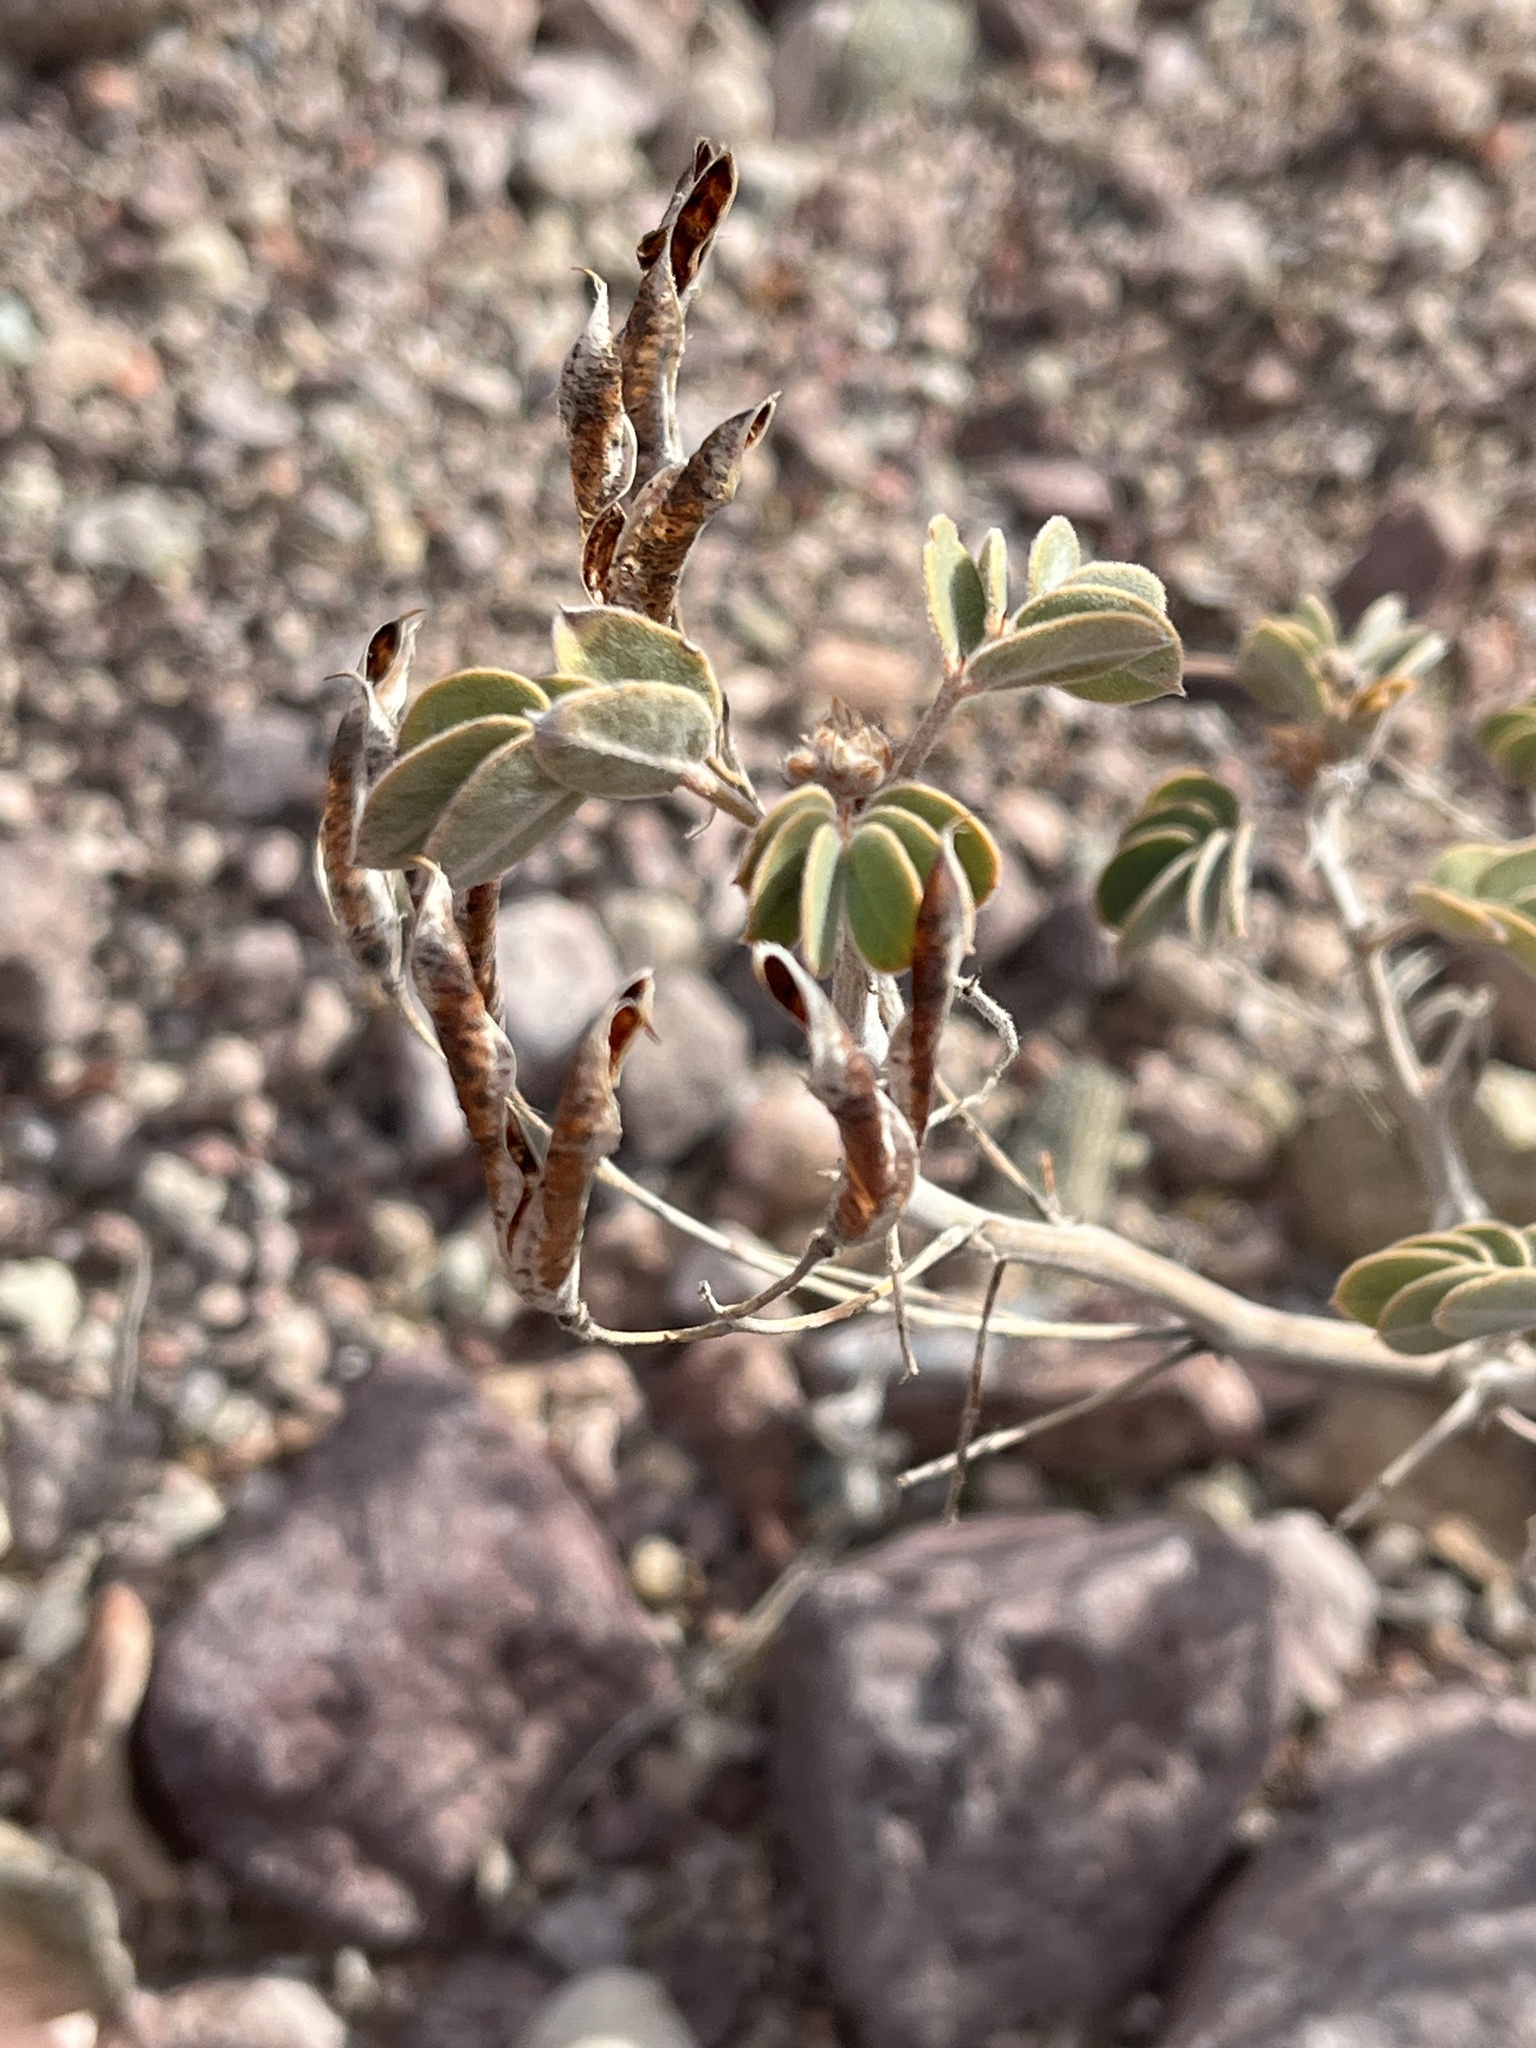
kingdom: Plantae
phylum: Tracheophyta
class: Magnoliopsida
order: Fabales
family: Fabaceae
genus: Senna
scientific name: Senna covesii
